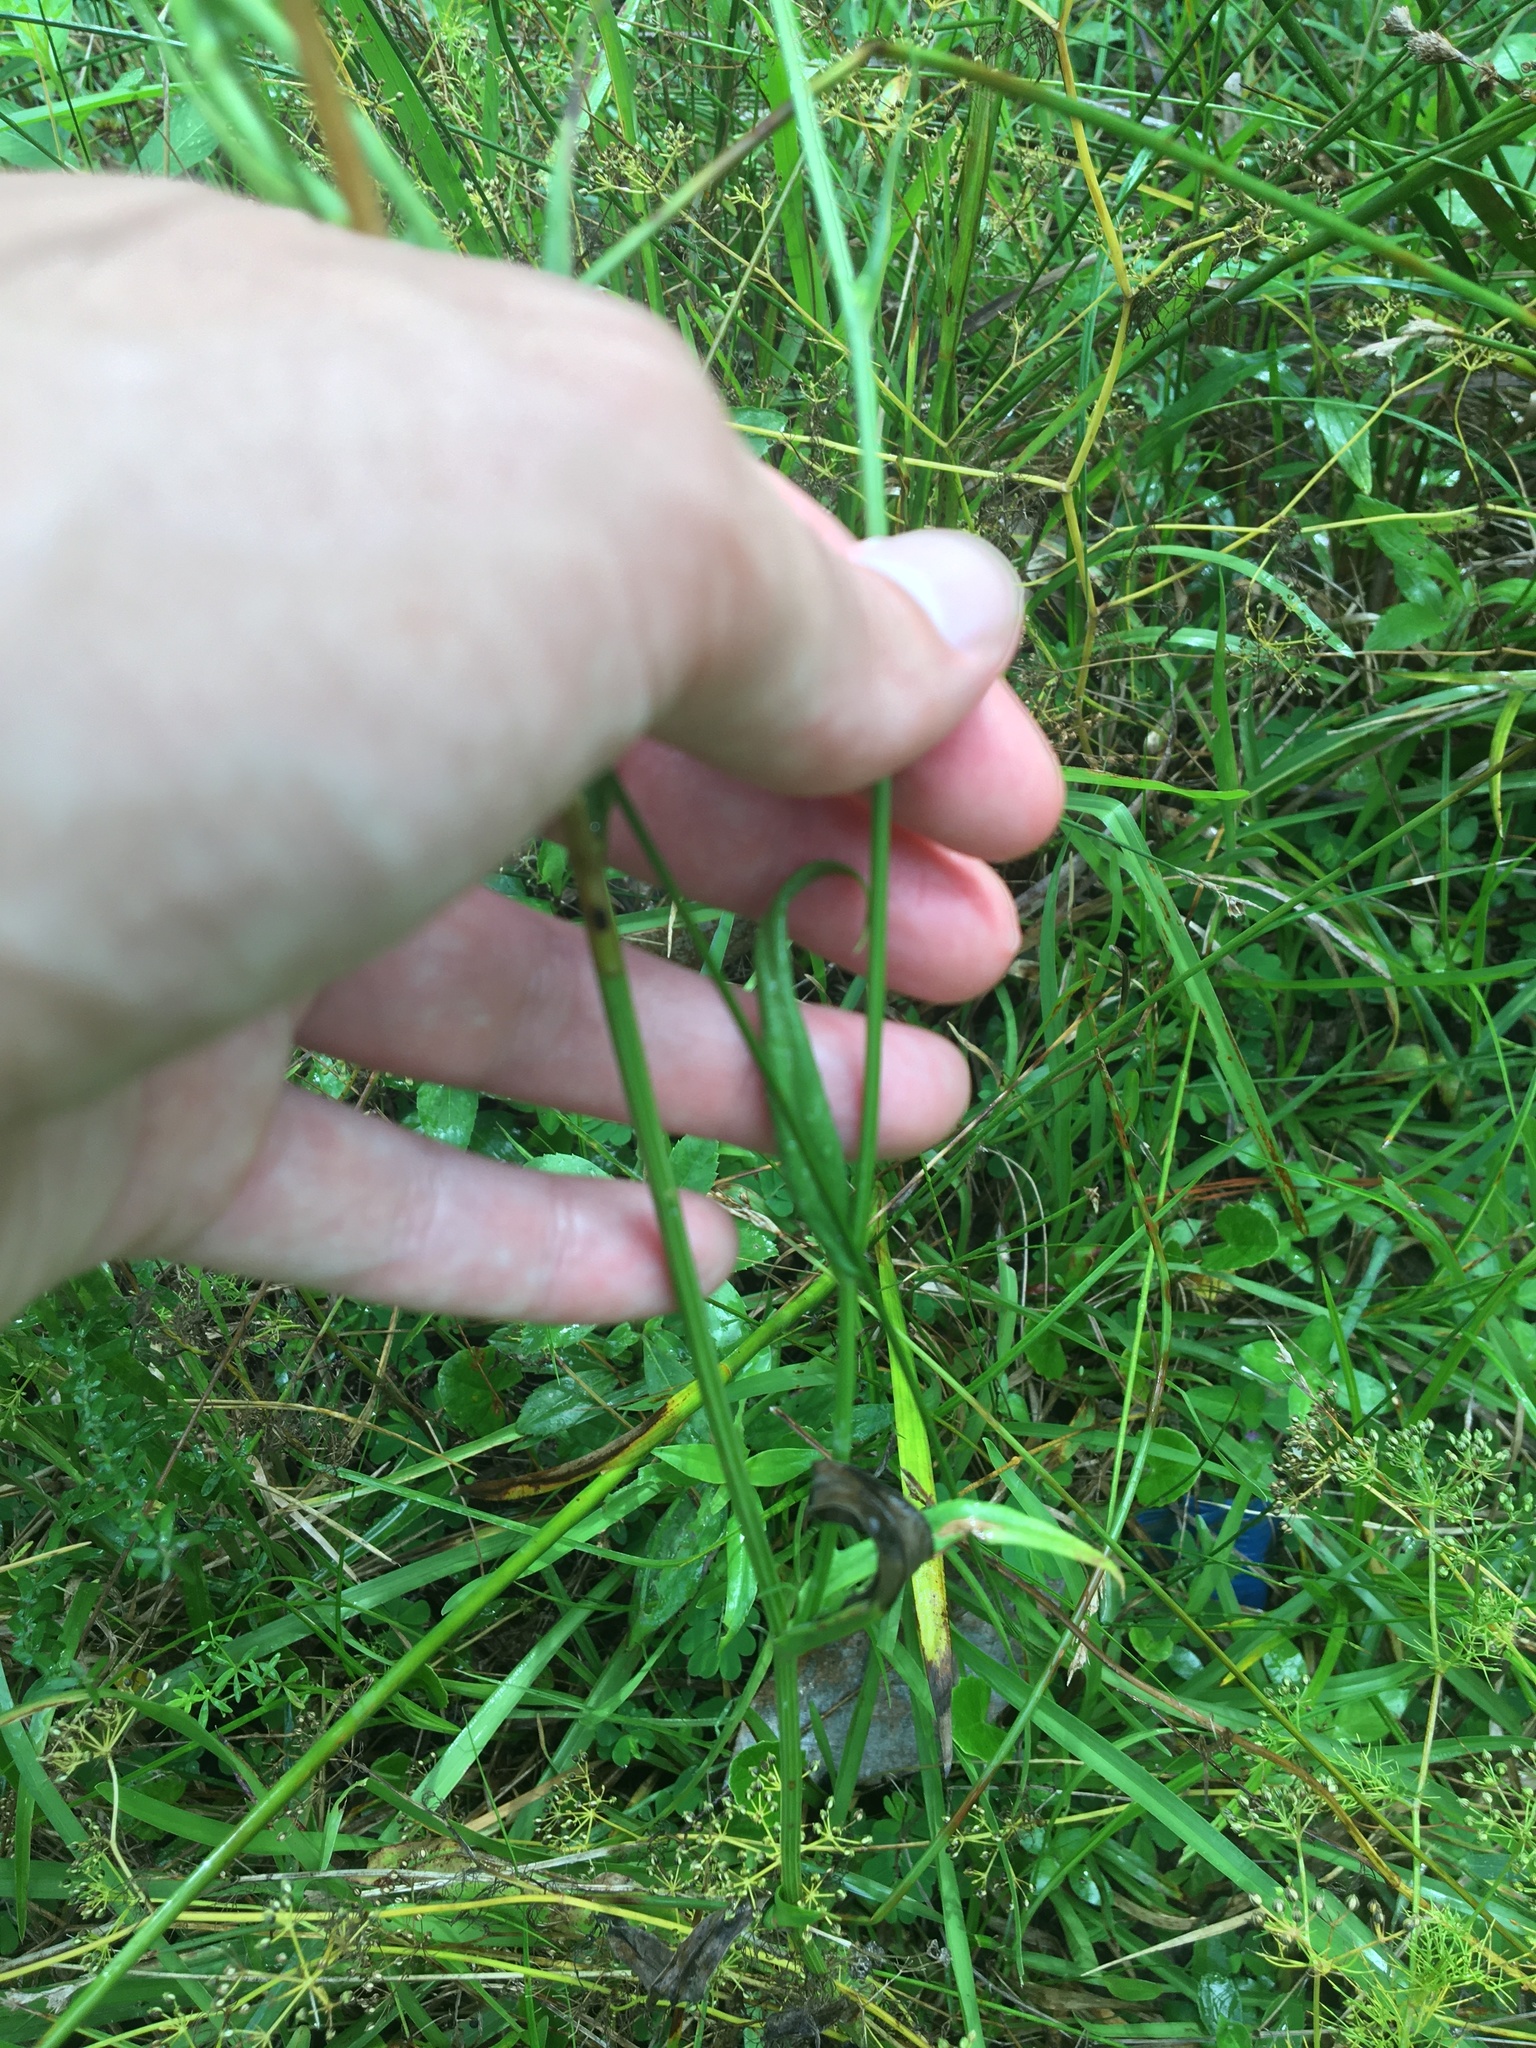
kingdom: Plantae
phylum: Tracheophyta
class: Magnoliopsida
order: Asterales
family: Asteraceae
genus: Pyrrhopappus
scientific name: Pyrrhopappus carolinianus
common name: Carolina desert-chicory
